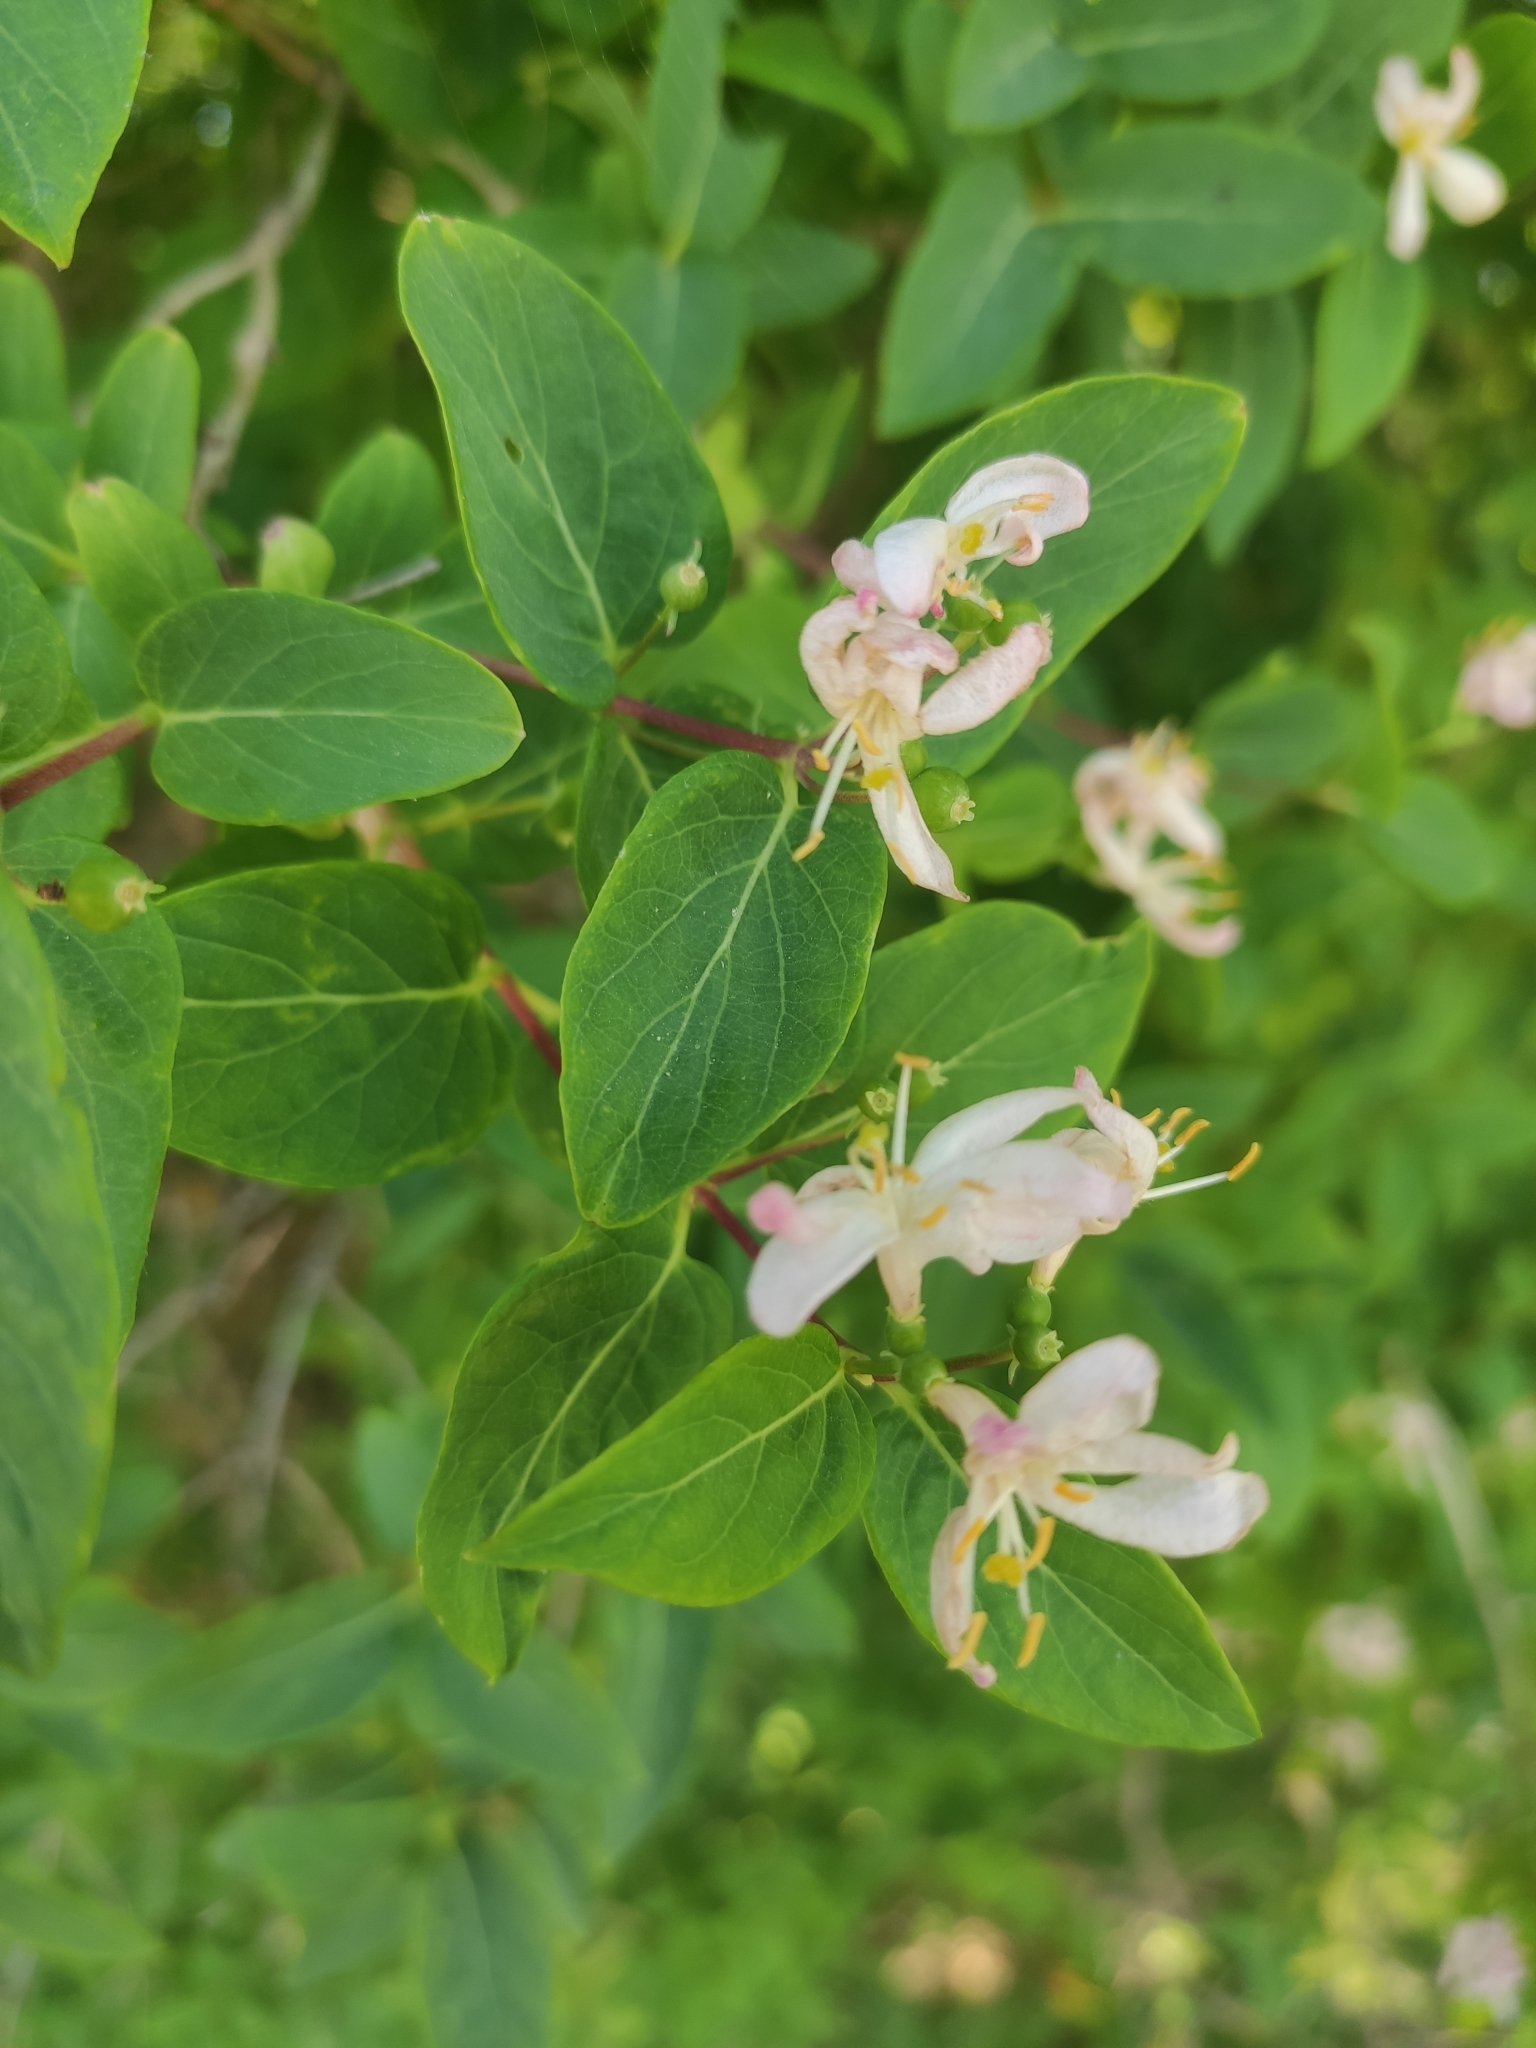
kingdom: Plantae
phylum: Tracheophyta
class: Magnoliopsida
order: Dipsacales
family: Caprifoliaceae
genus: Lonicera
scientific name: Lonicera tatarica
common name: Tatarian honeysuckle
